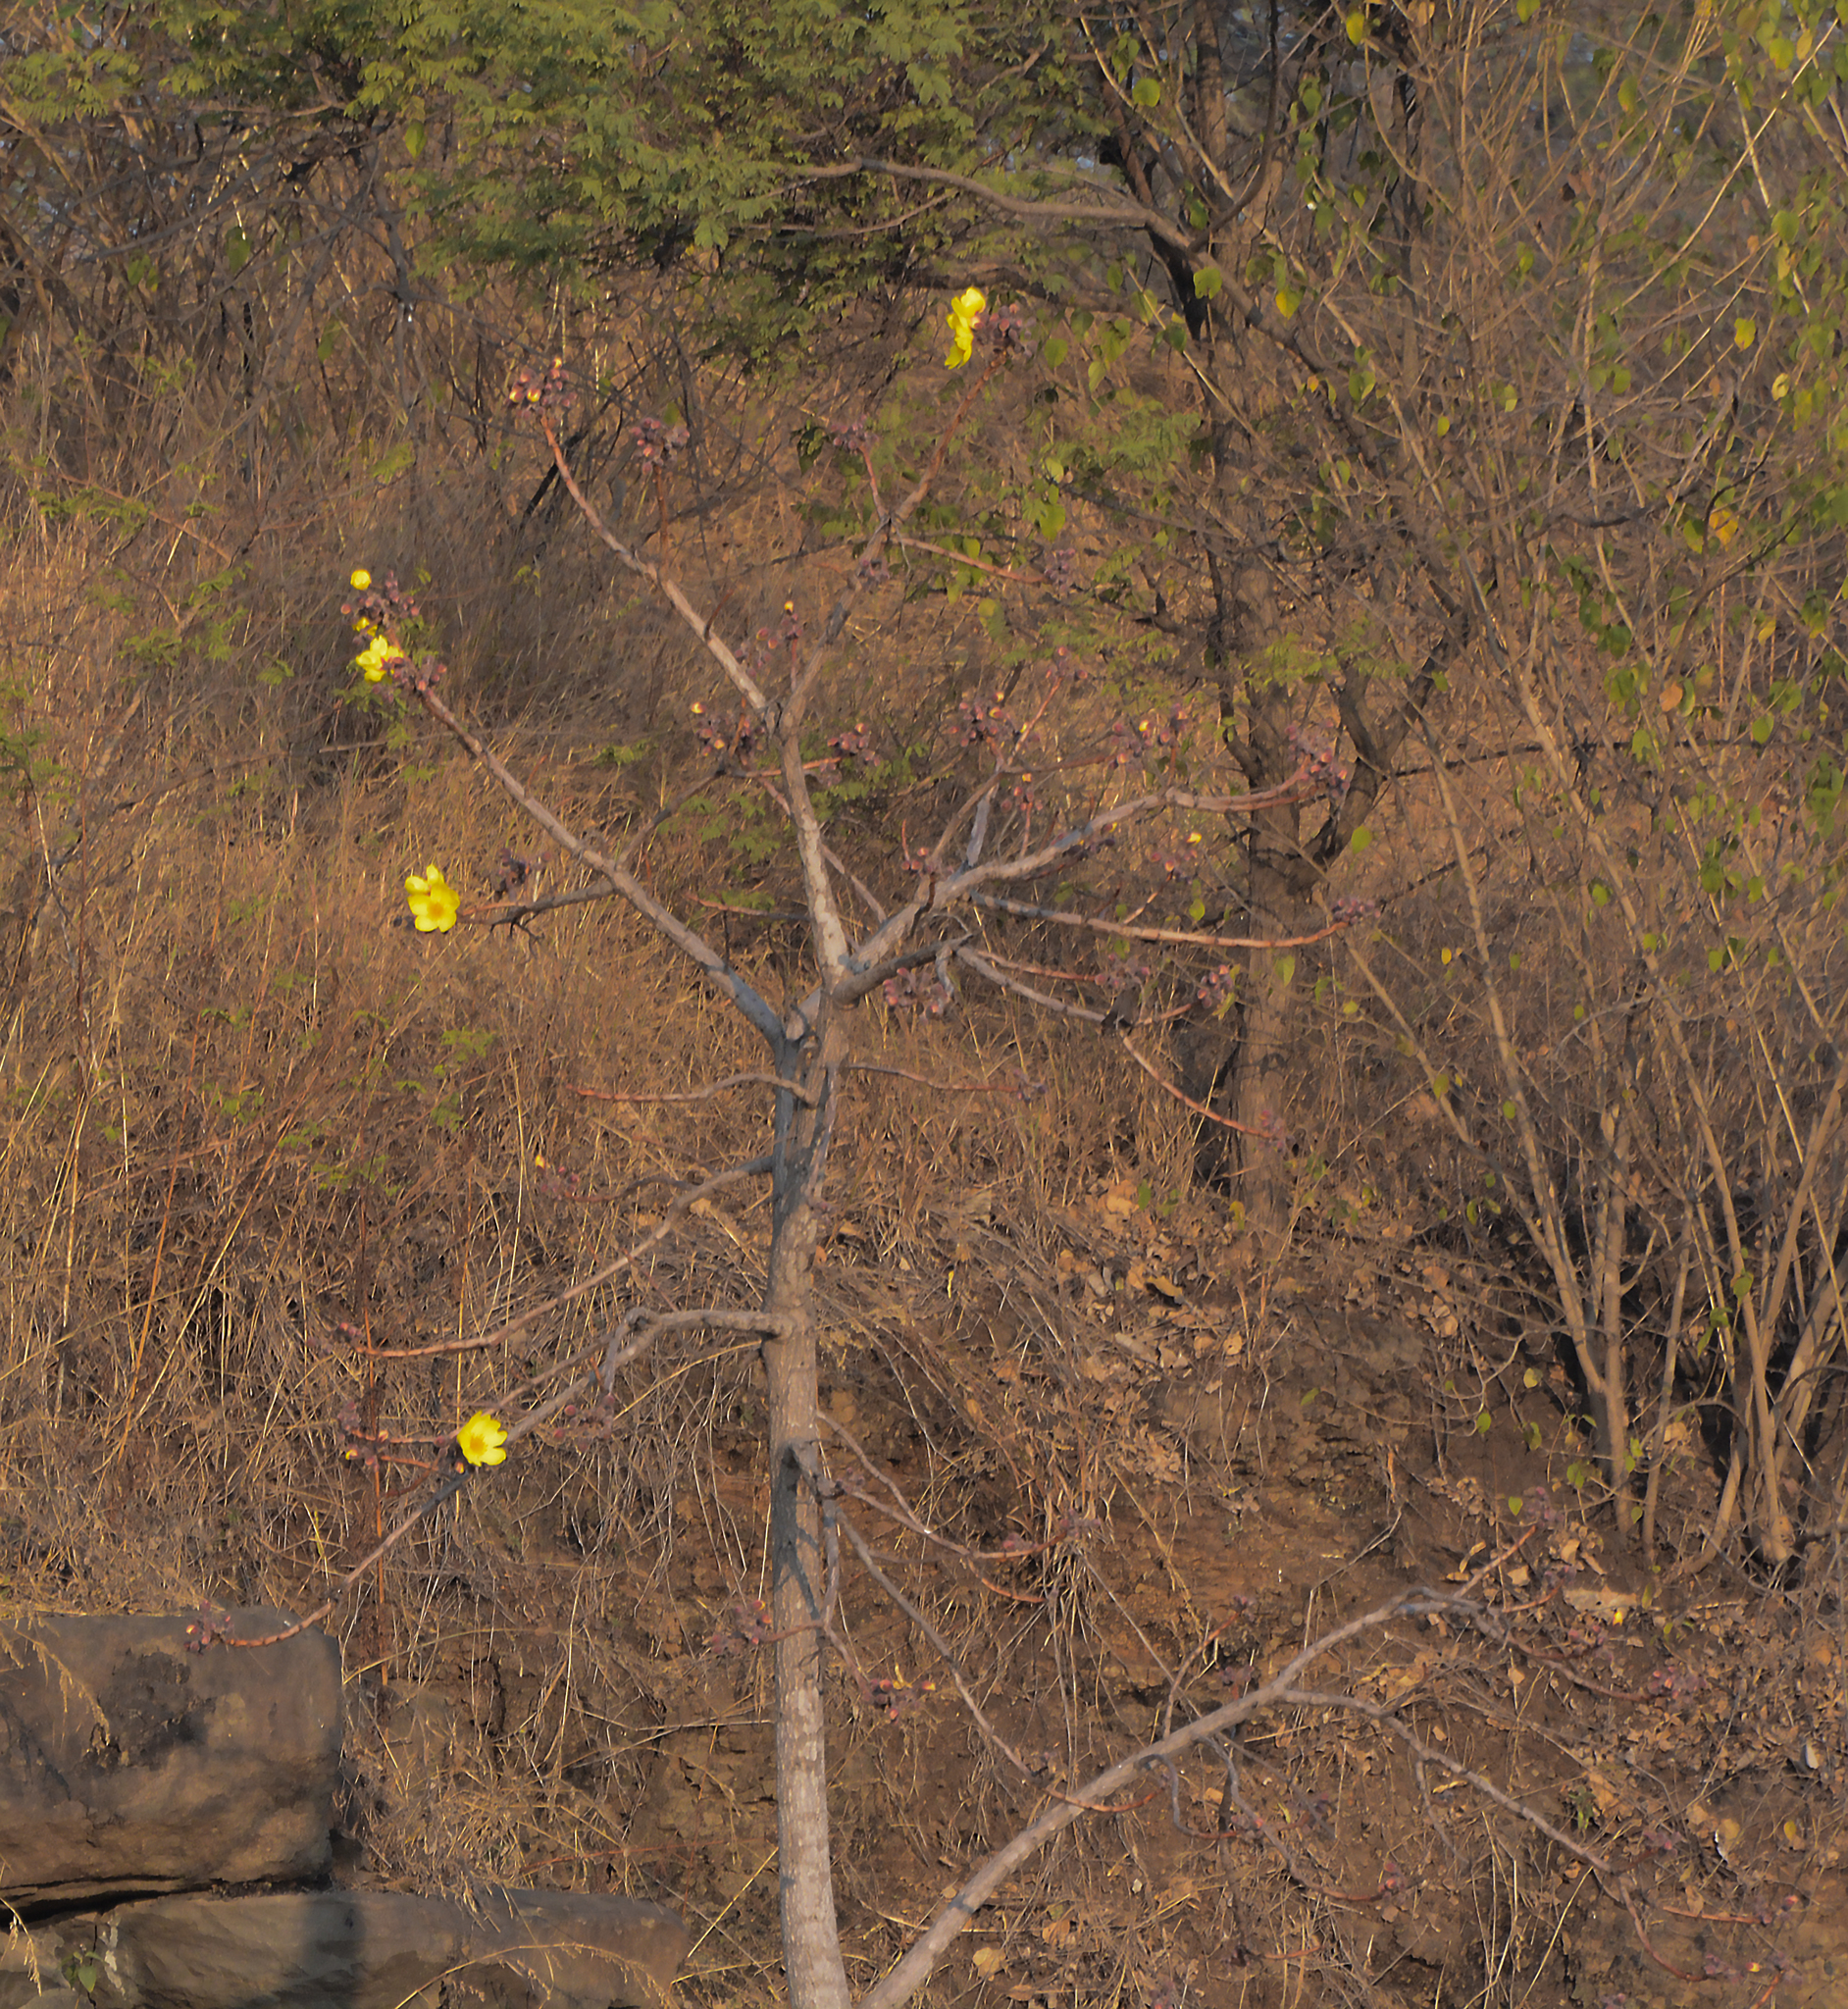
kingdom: Plantae
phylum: Tracheophyta
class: Magnoliopsida
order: Malvales
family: Cochlospermaceae
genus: Cochlospermum
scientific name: Cochlospermum
